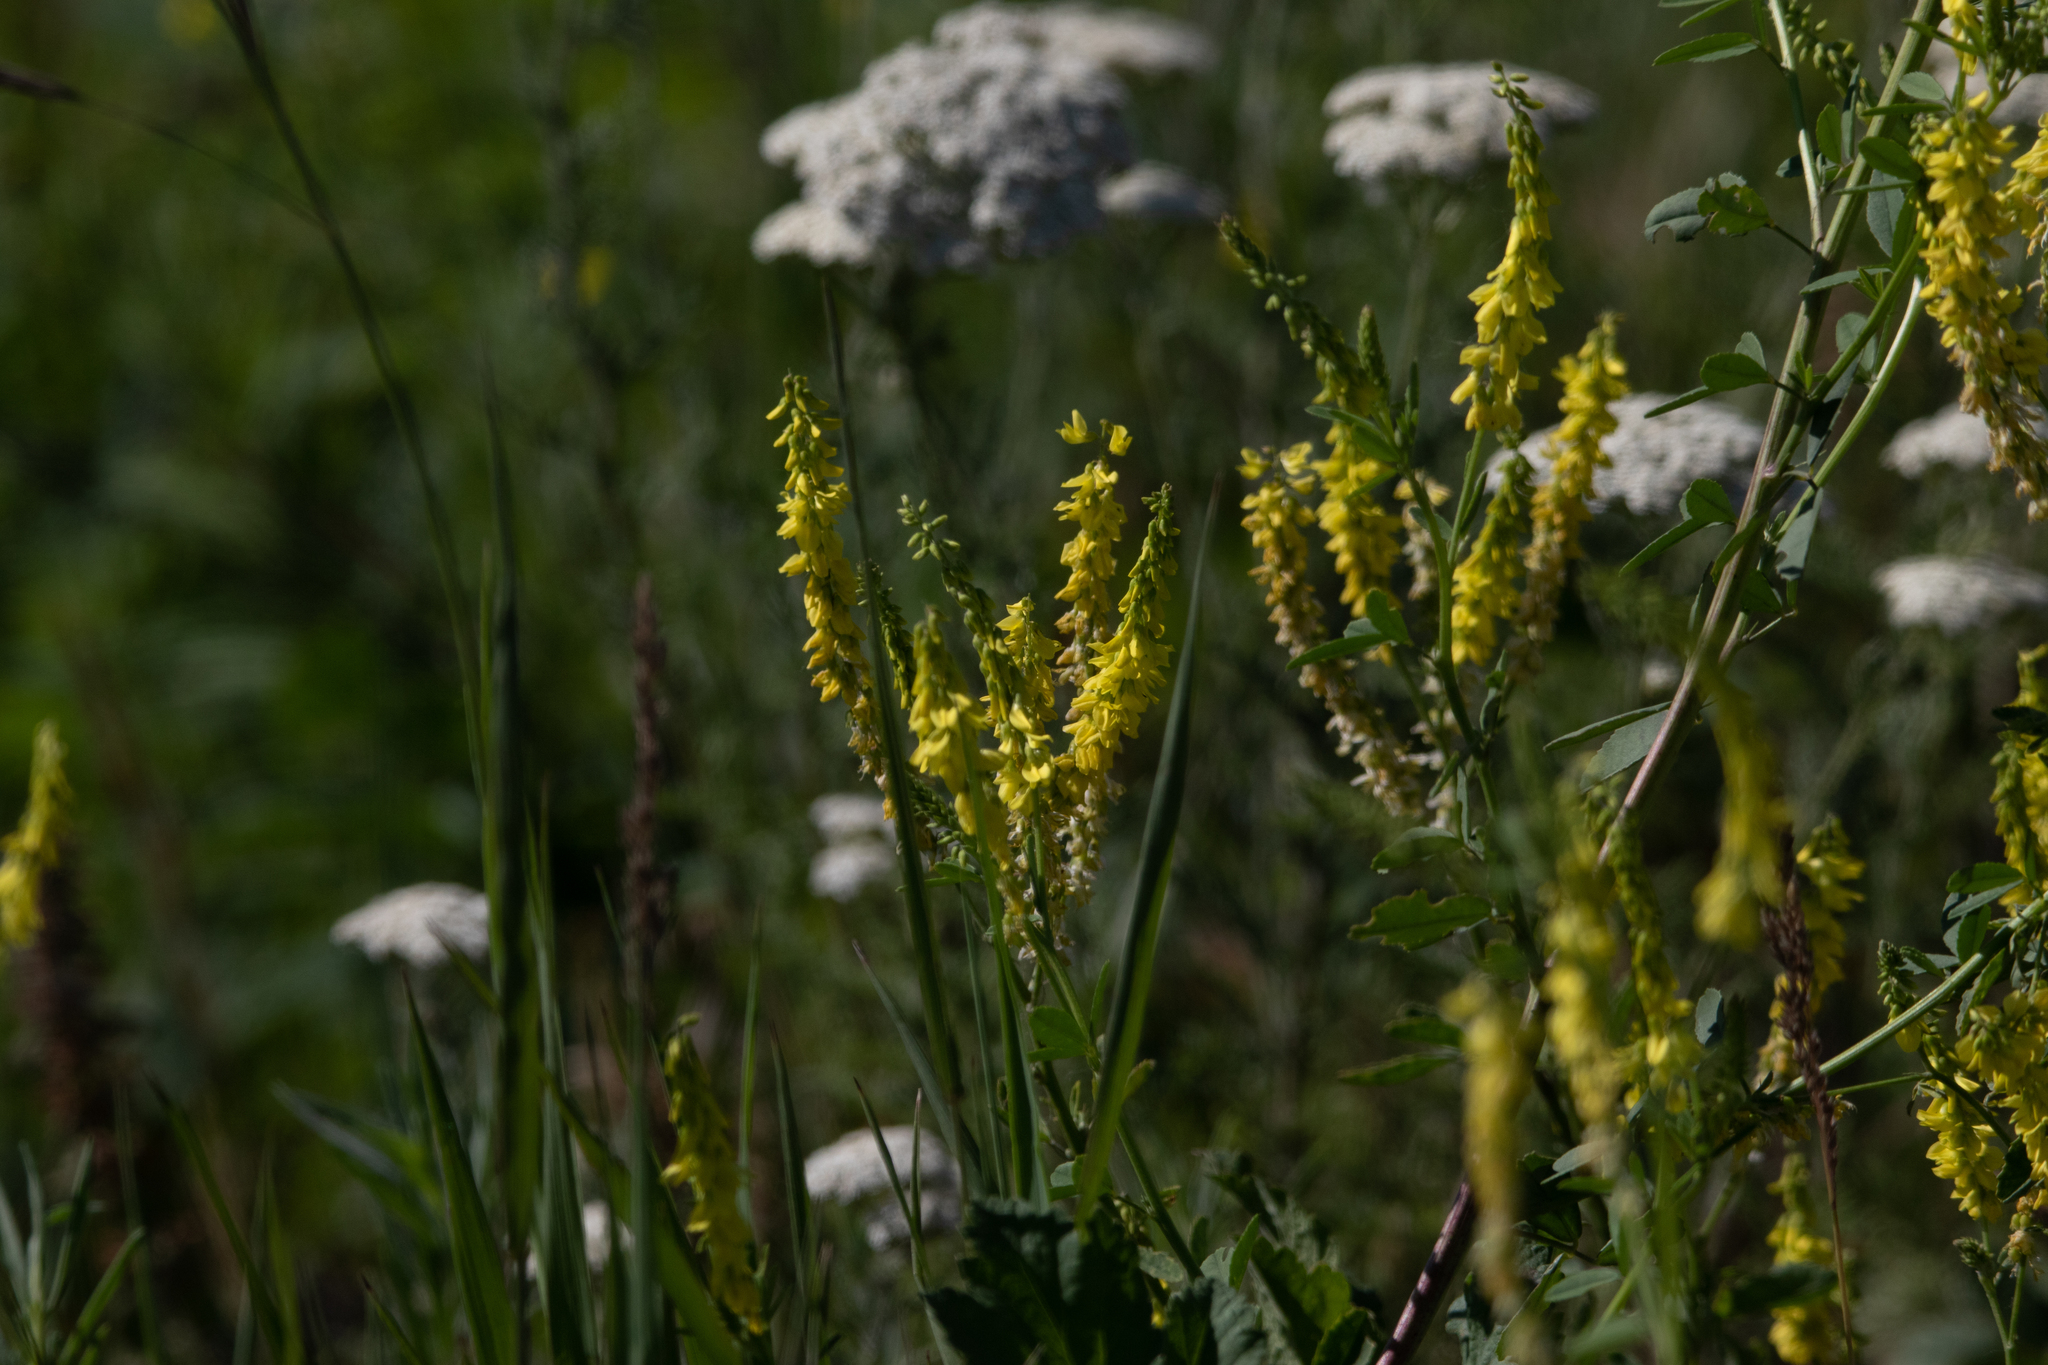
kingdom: Plantae
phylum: Tracheophyta
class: Magnoliopsida
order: Fabales
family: Fabaceae
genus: Melilotus
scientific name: Melilotus officinalis
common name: Sweetclover
